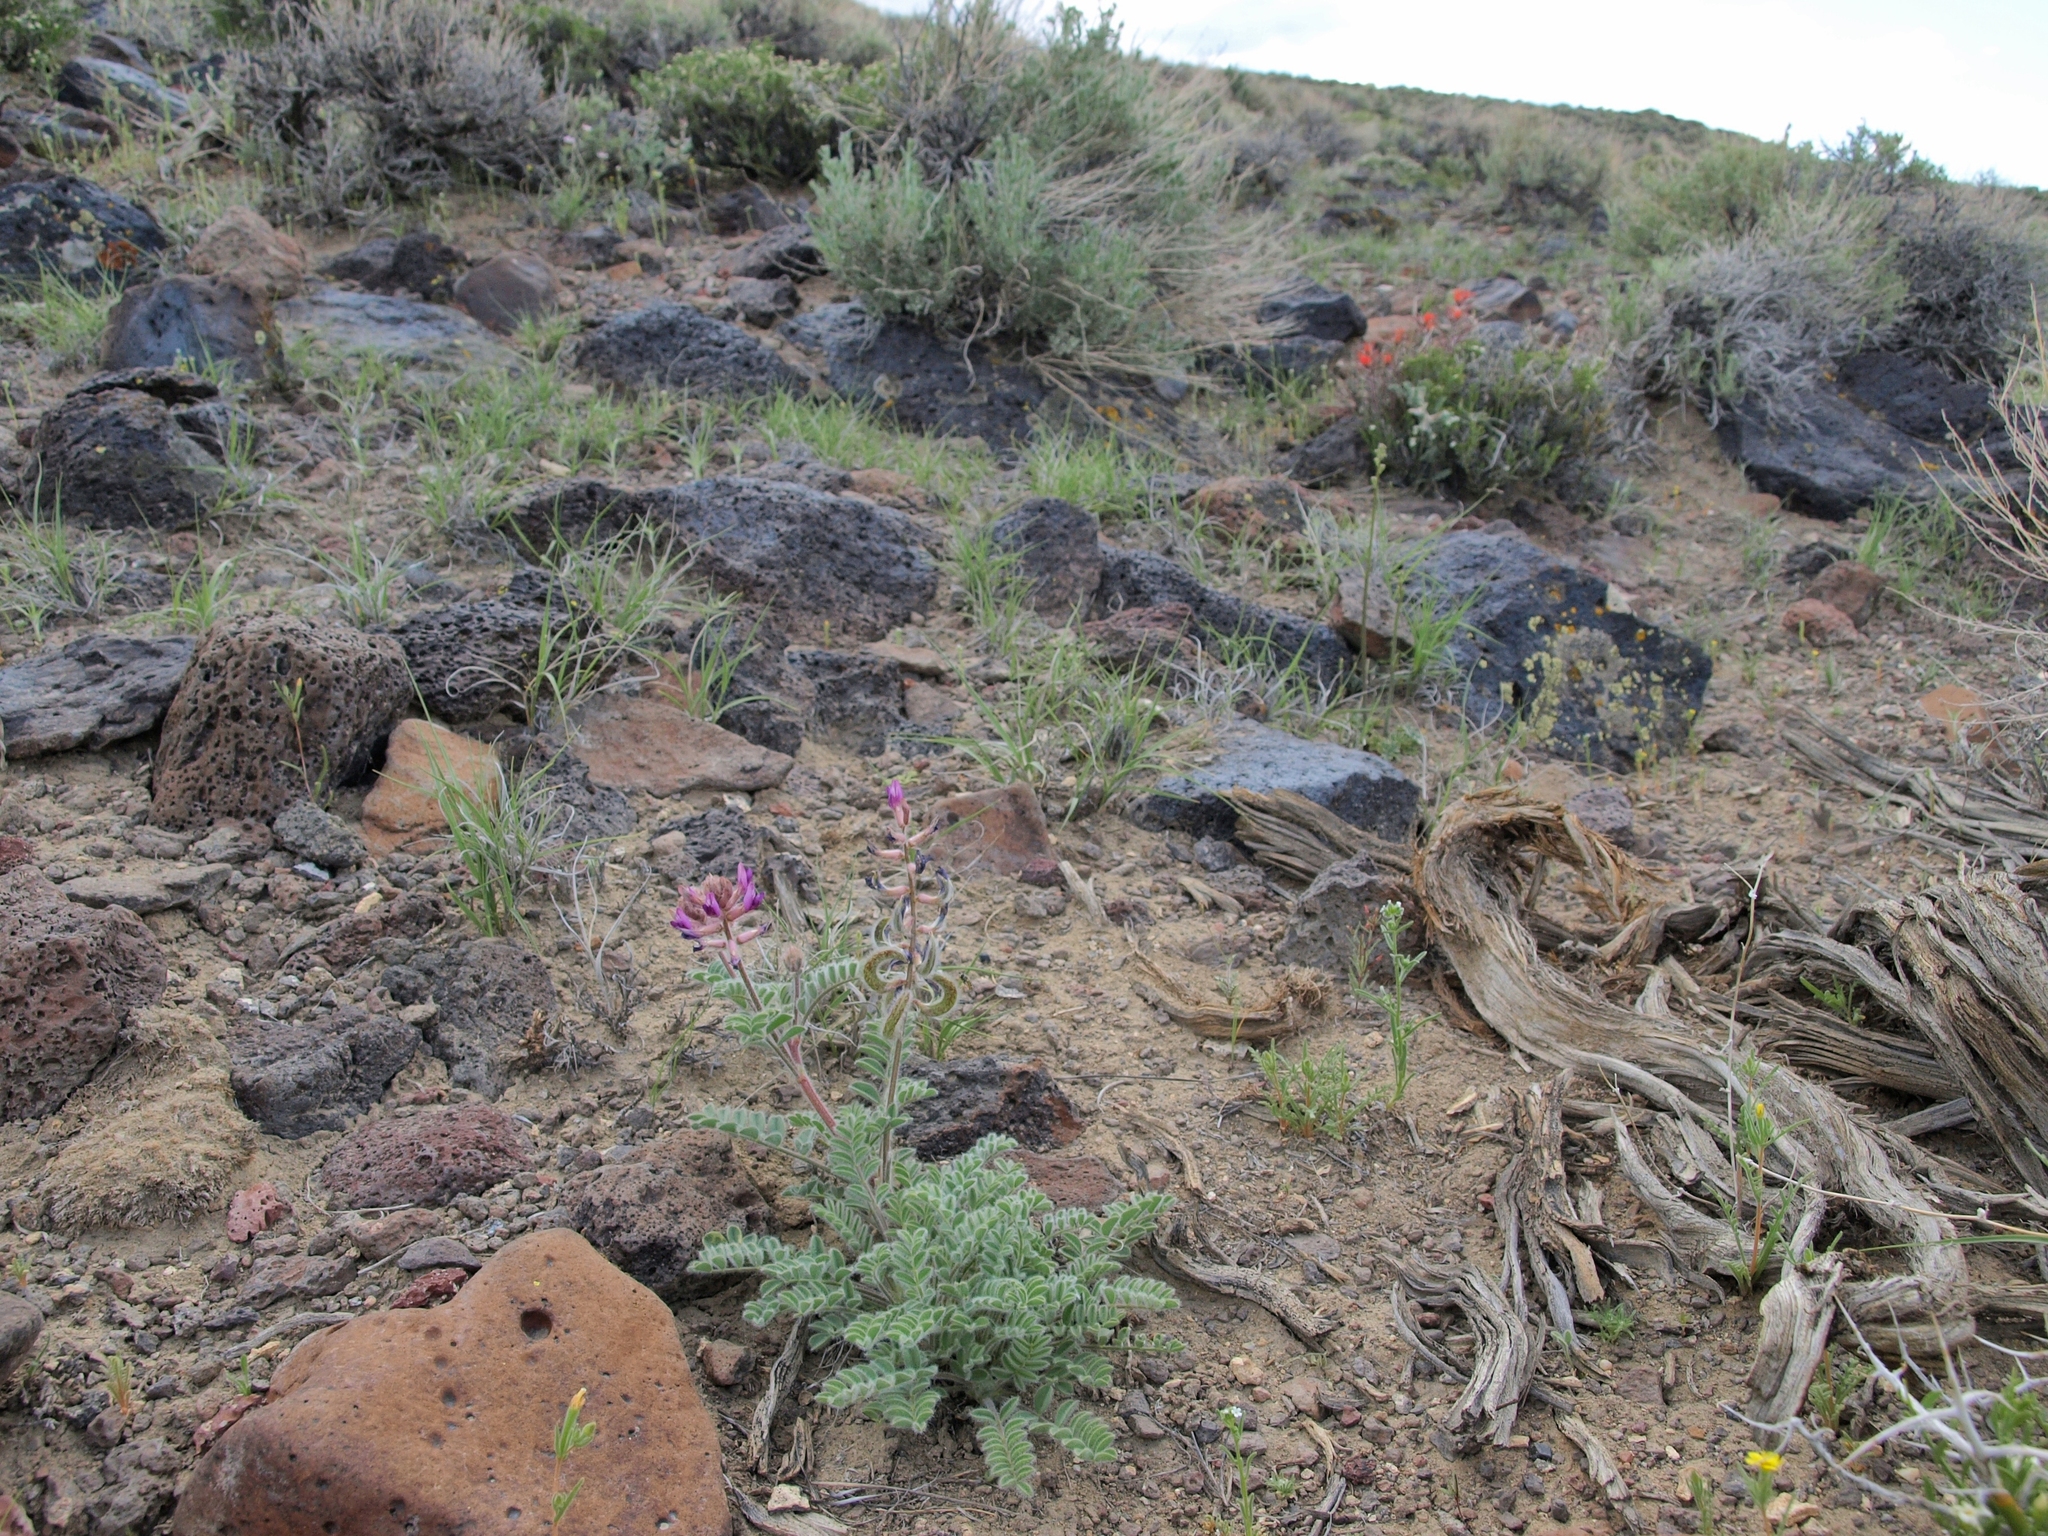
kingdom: Plantae
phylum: Tracheophyta
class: Magnoliopsida
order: Fabales
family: Fabaceae
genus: Astragalus
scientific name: Astragalus malacus
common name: Shaggy milk-vetch
